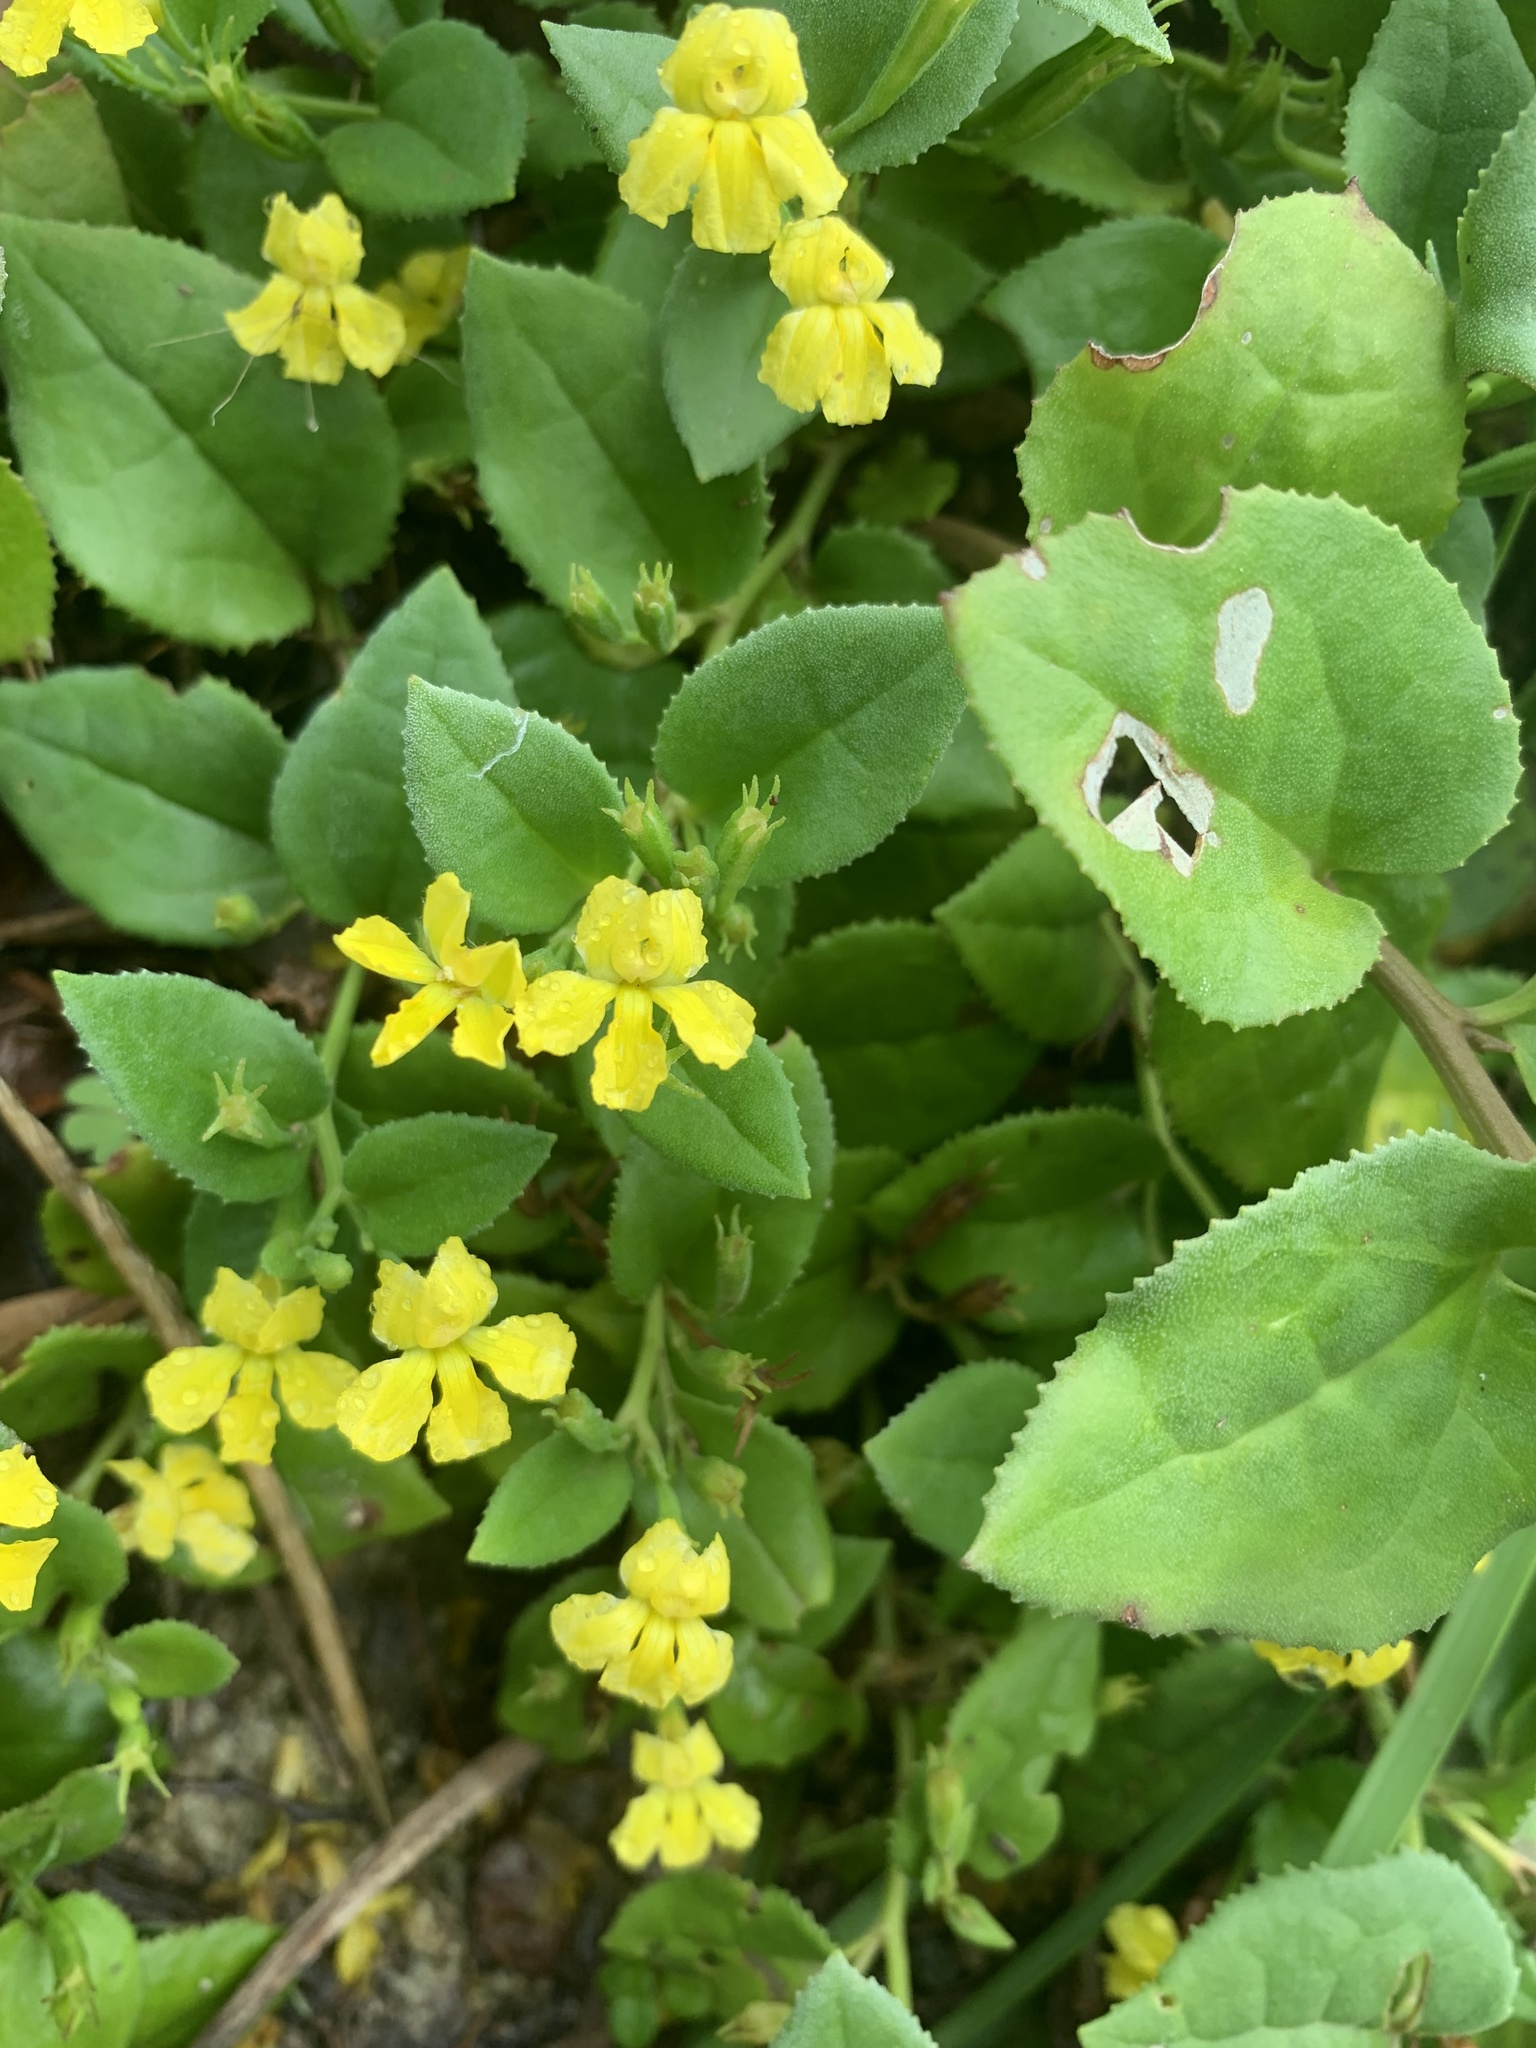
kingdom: Plantae
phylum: Tracheophyta
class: Magnoliopsida
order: Asterales
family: Goodeniaceae
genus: Goodenia
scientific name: Goodenia ovata
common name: Hop goodenia
